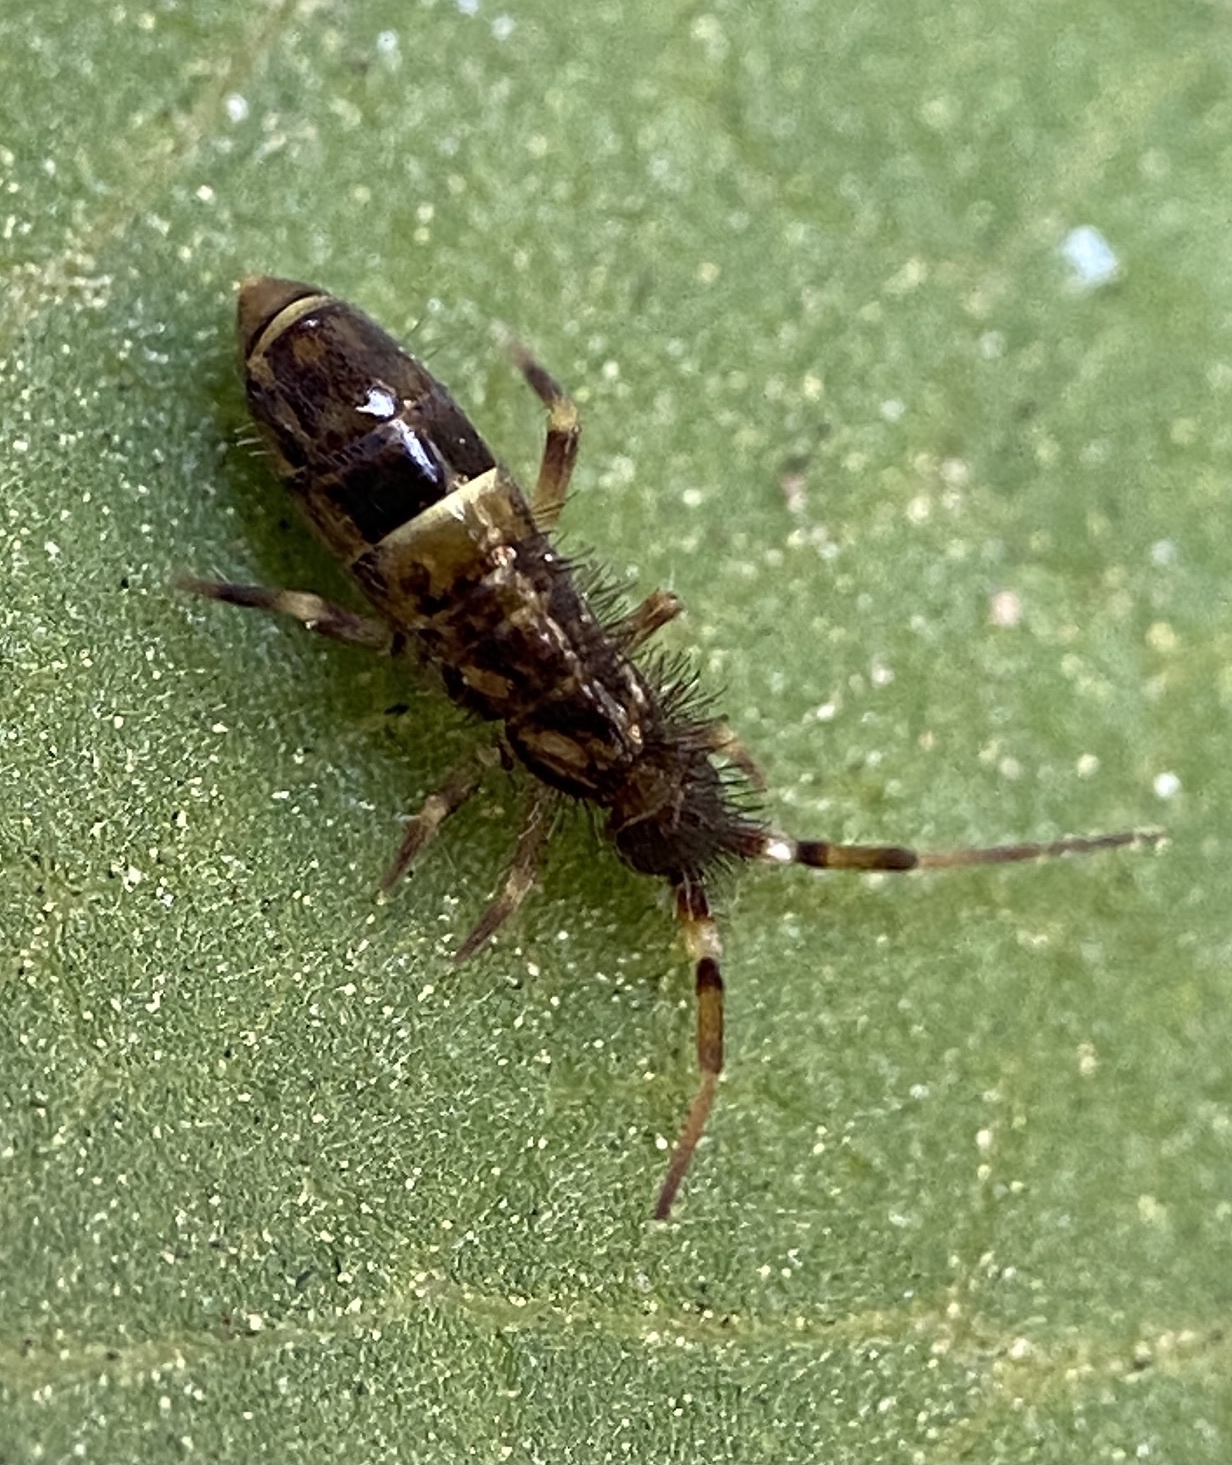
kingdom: Animalia
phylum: Arthropoda
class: Collembola
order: Entomobryomorpha
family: Orchesellidae
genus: Orchesella
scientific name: Orchesella cincta
